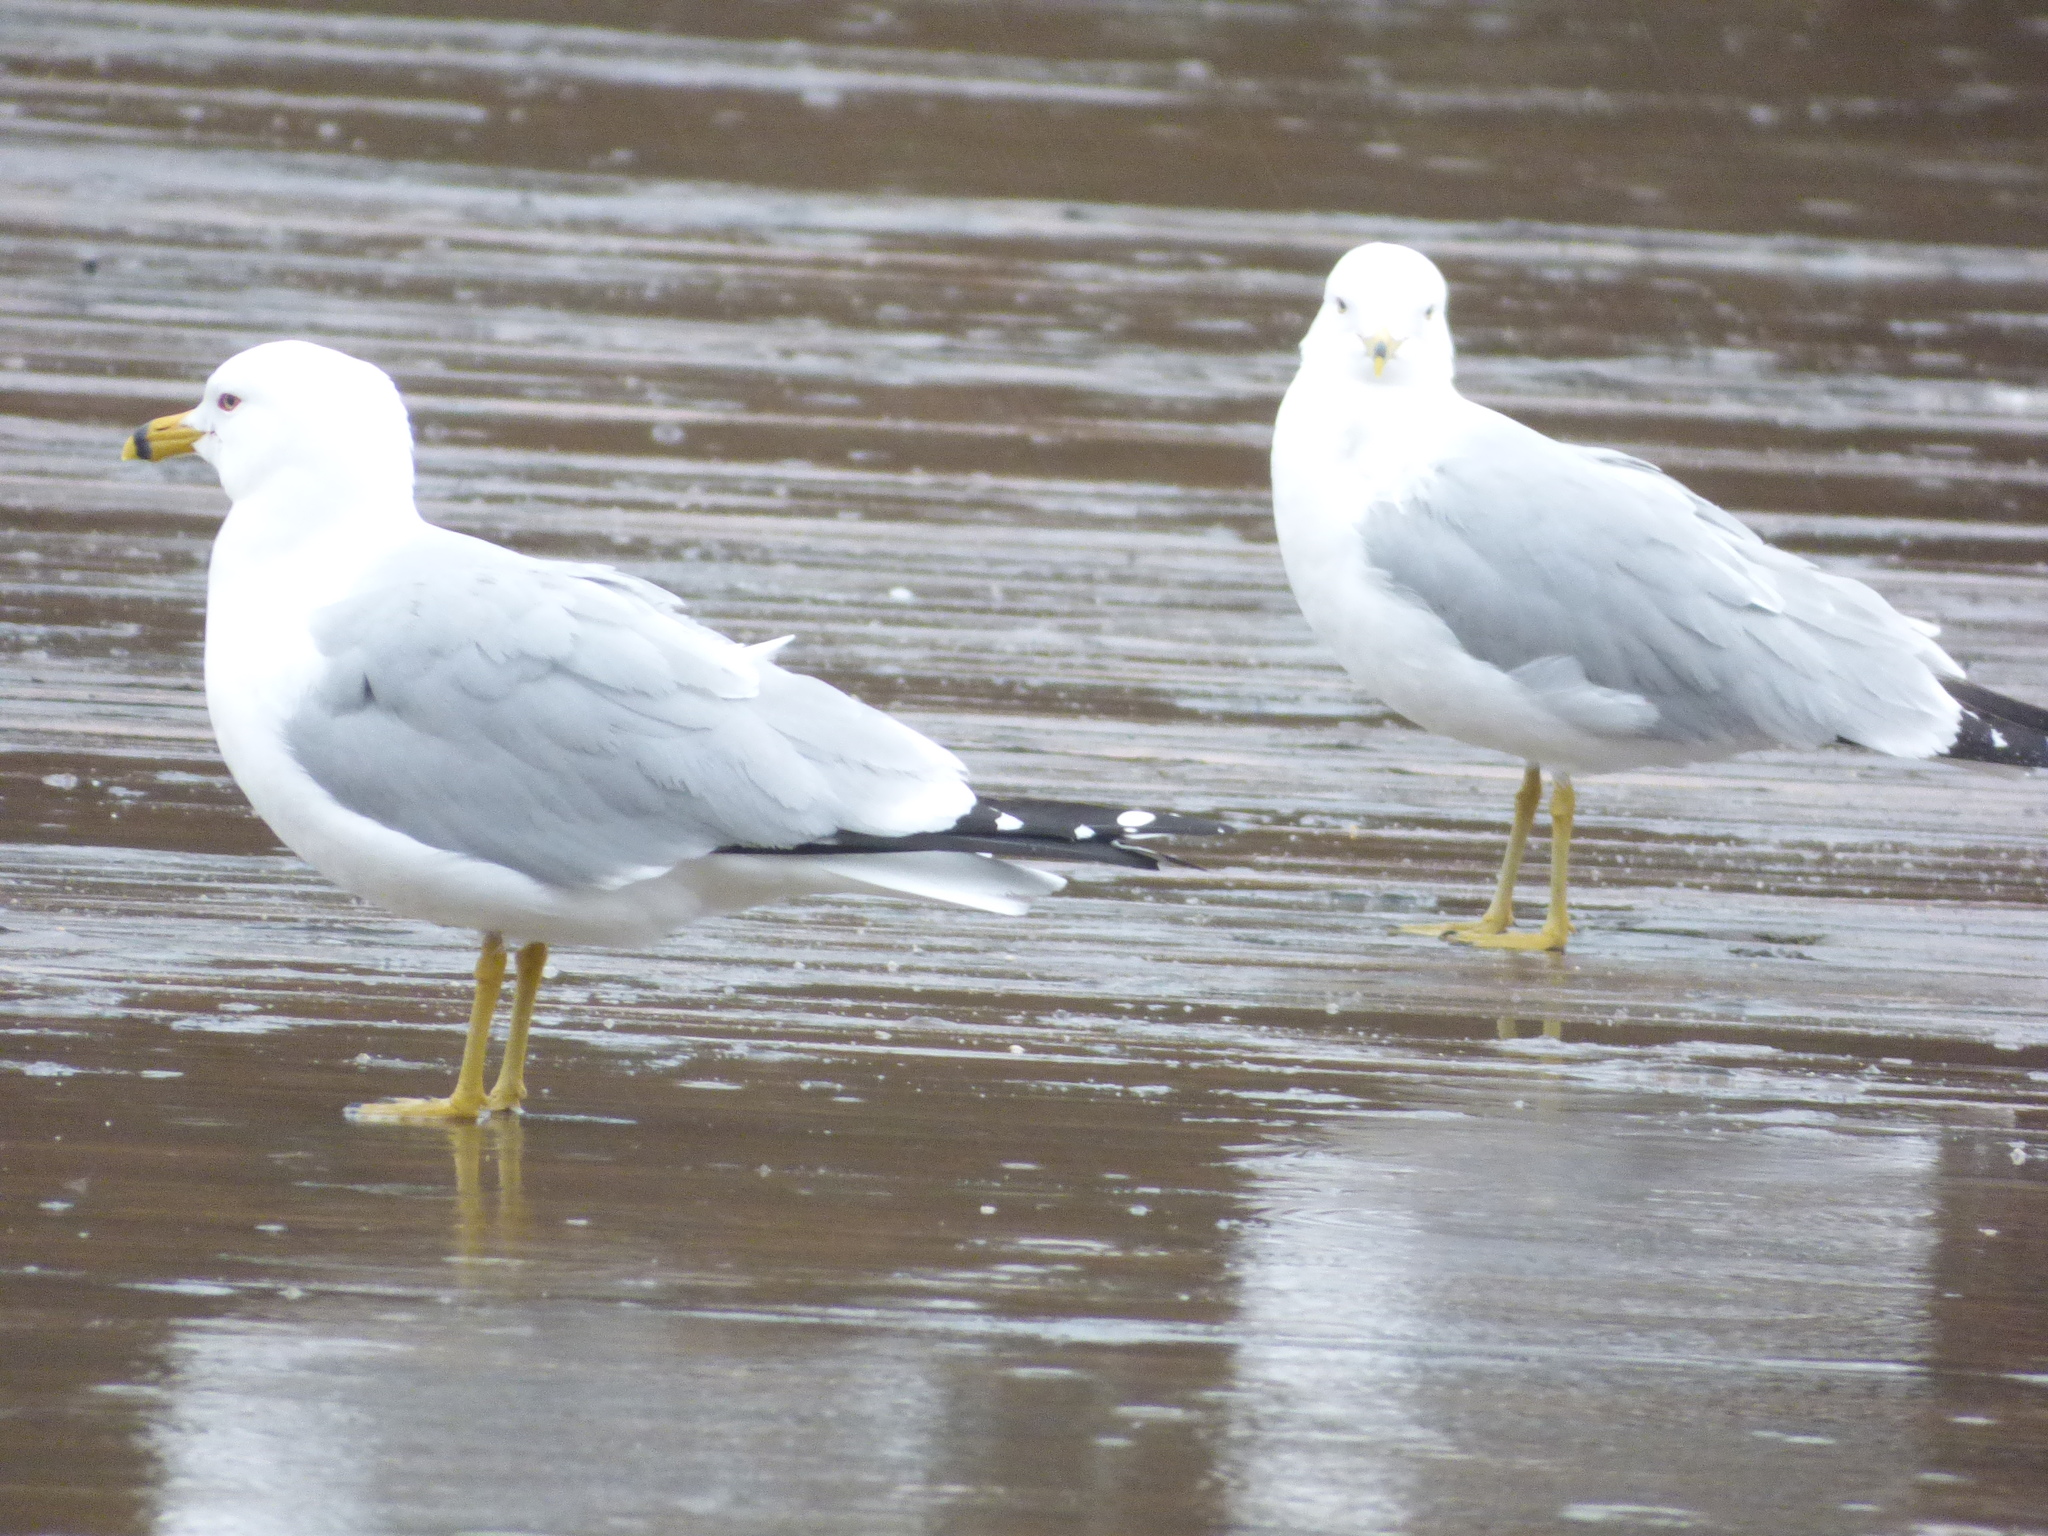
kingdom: Animalia
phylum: Chordata
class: Aves
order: Charadriiformes
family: Laridae
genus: Larus
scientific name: Larus delawarensis
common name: Ring-billed gull
